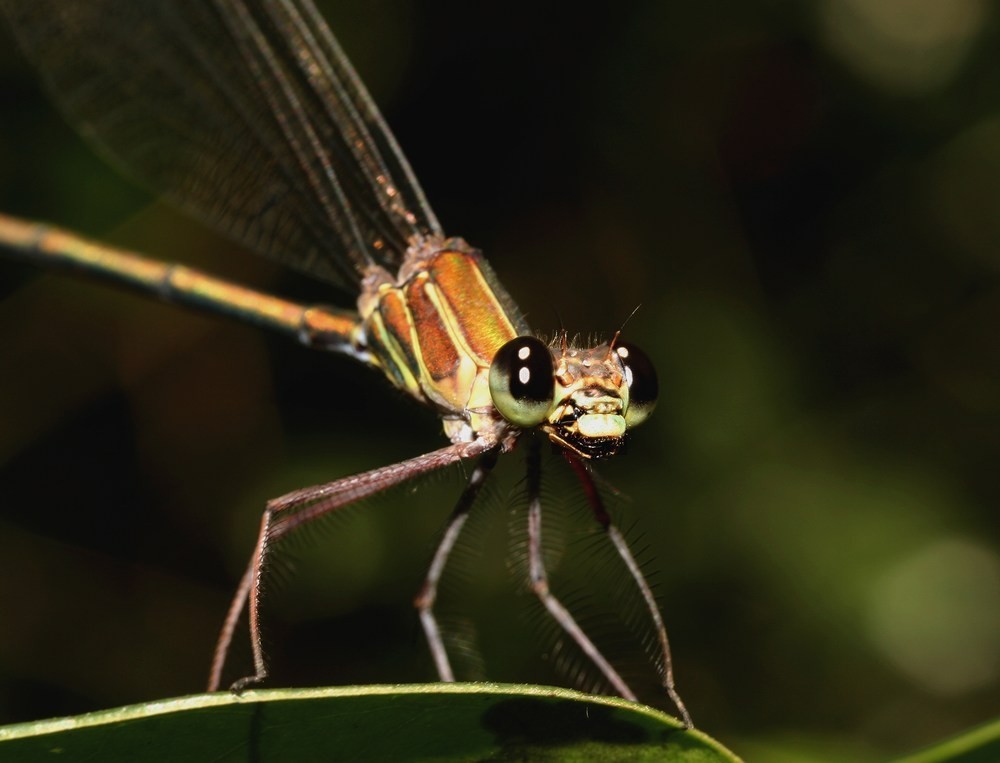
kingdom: Animalia
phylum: Arthropoda
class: Insecta
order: Odonata
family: Calopterygidae
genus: Phaon
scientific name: Phaon rasoherinae
